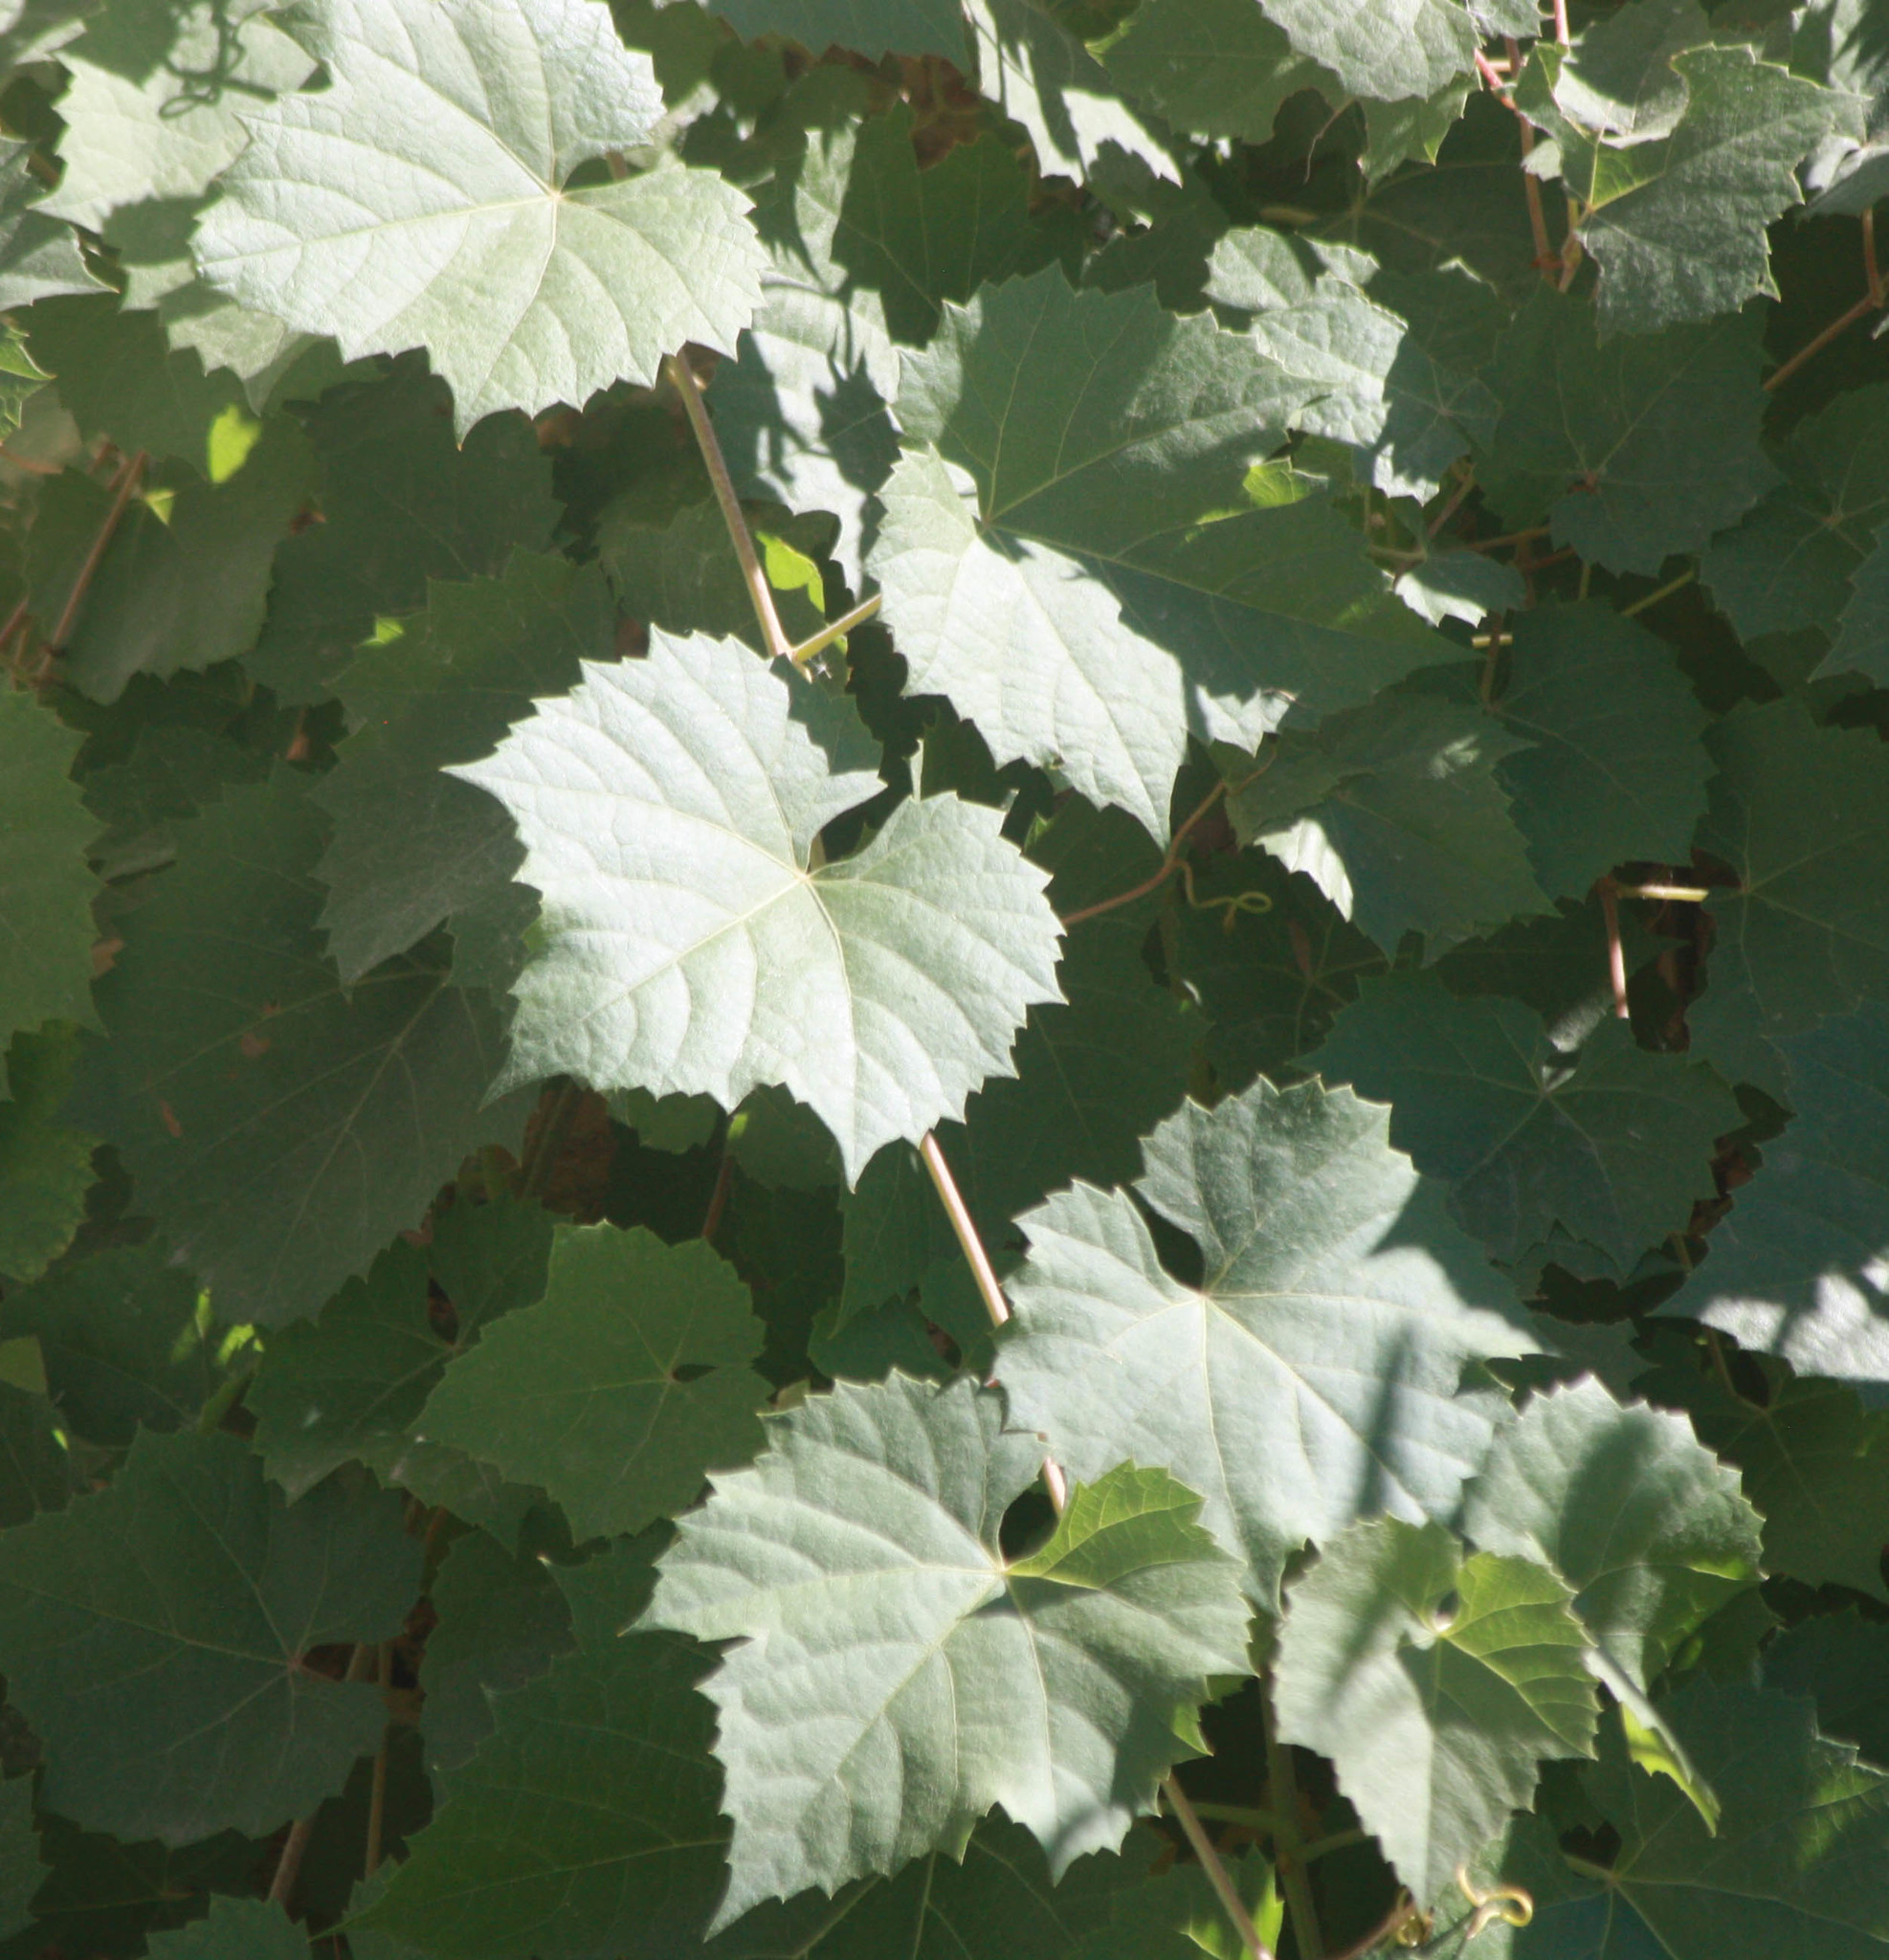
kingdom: Plantae
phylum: Tracheophyta
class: Magnoliopsida
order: Vitales
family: Vitaceae
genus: Vitis
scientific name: Vitis arizonica
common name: Canyon grape
